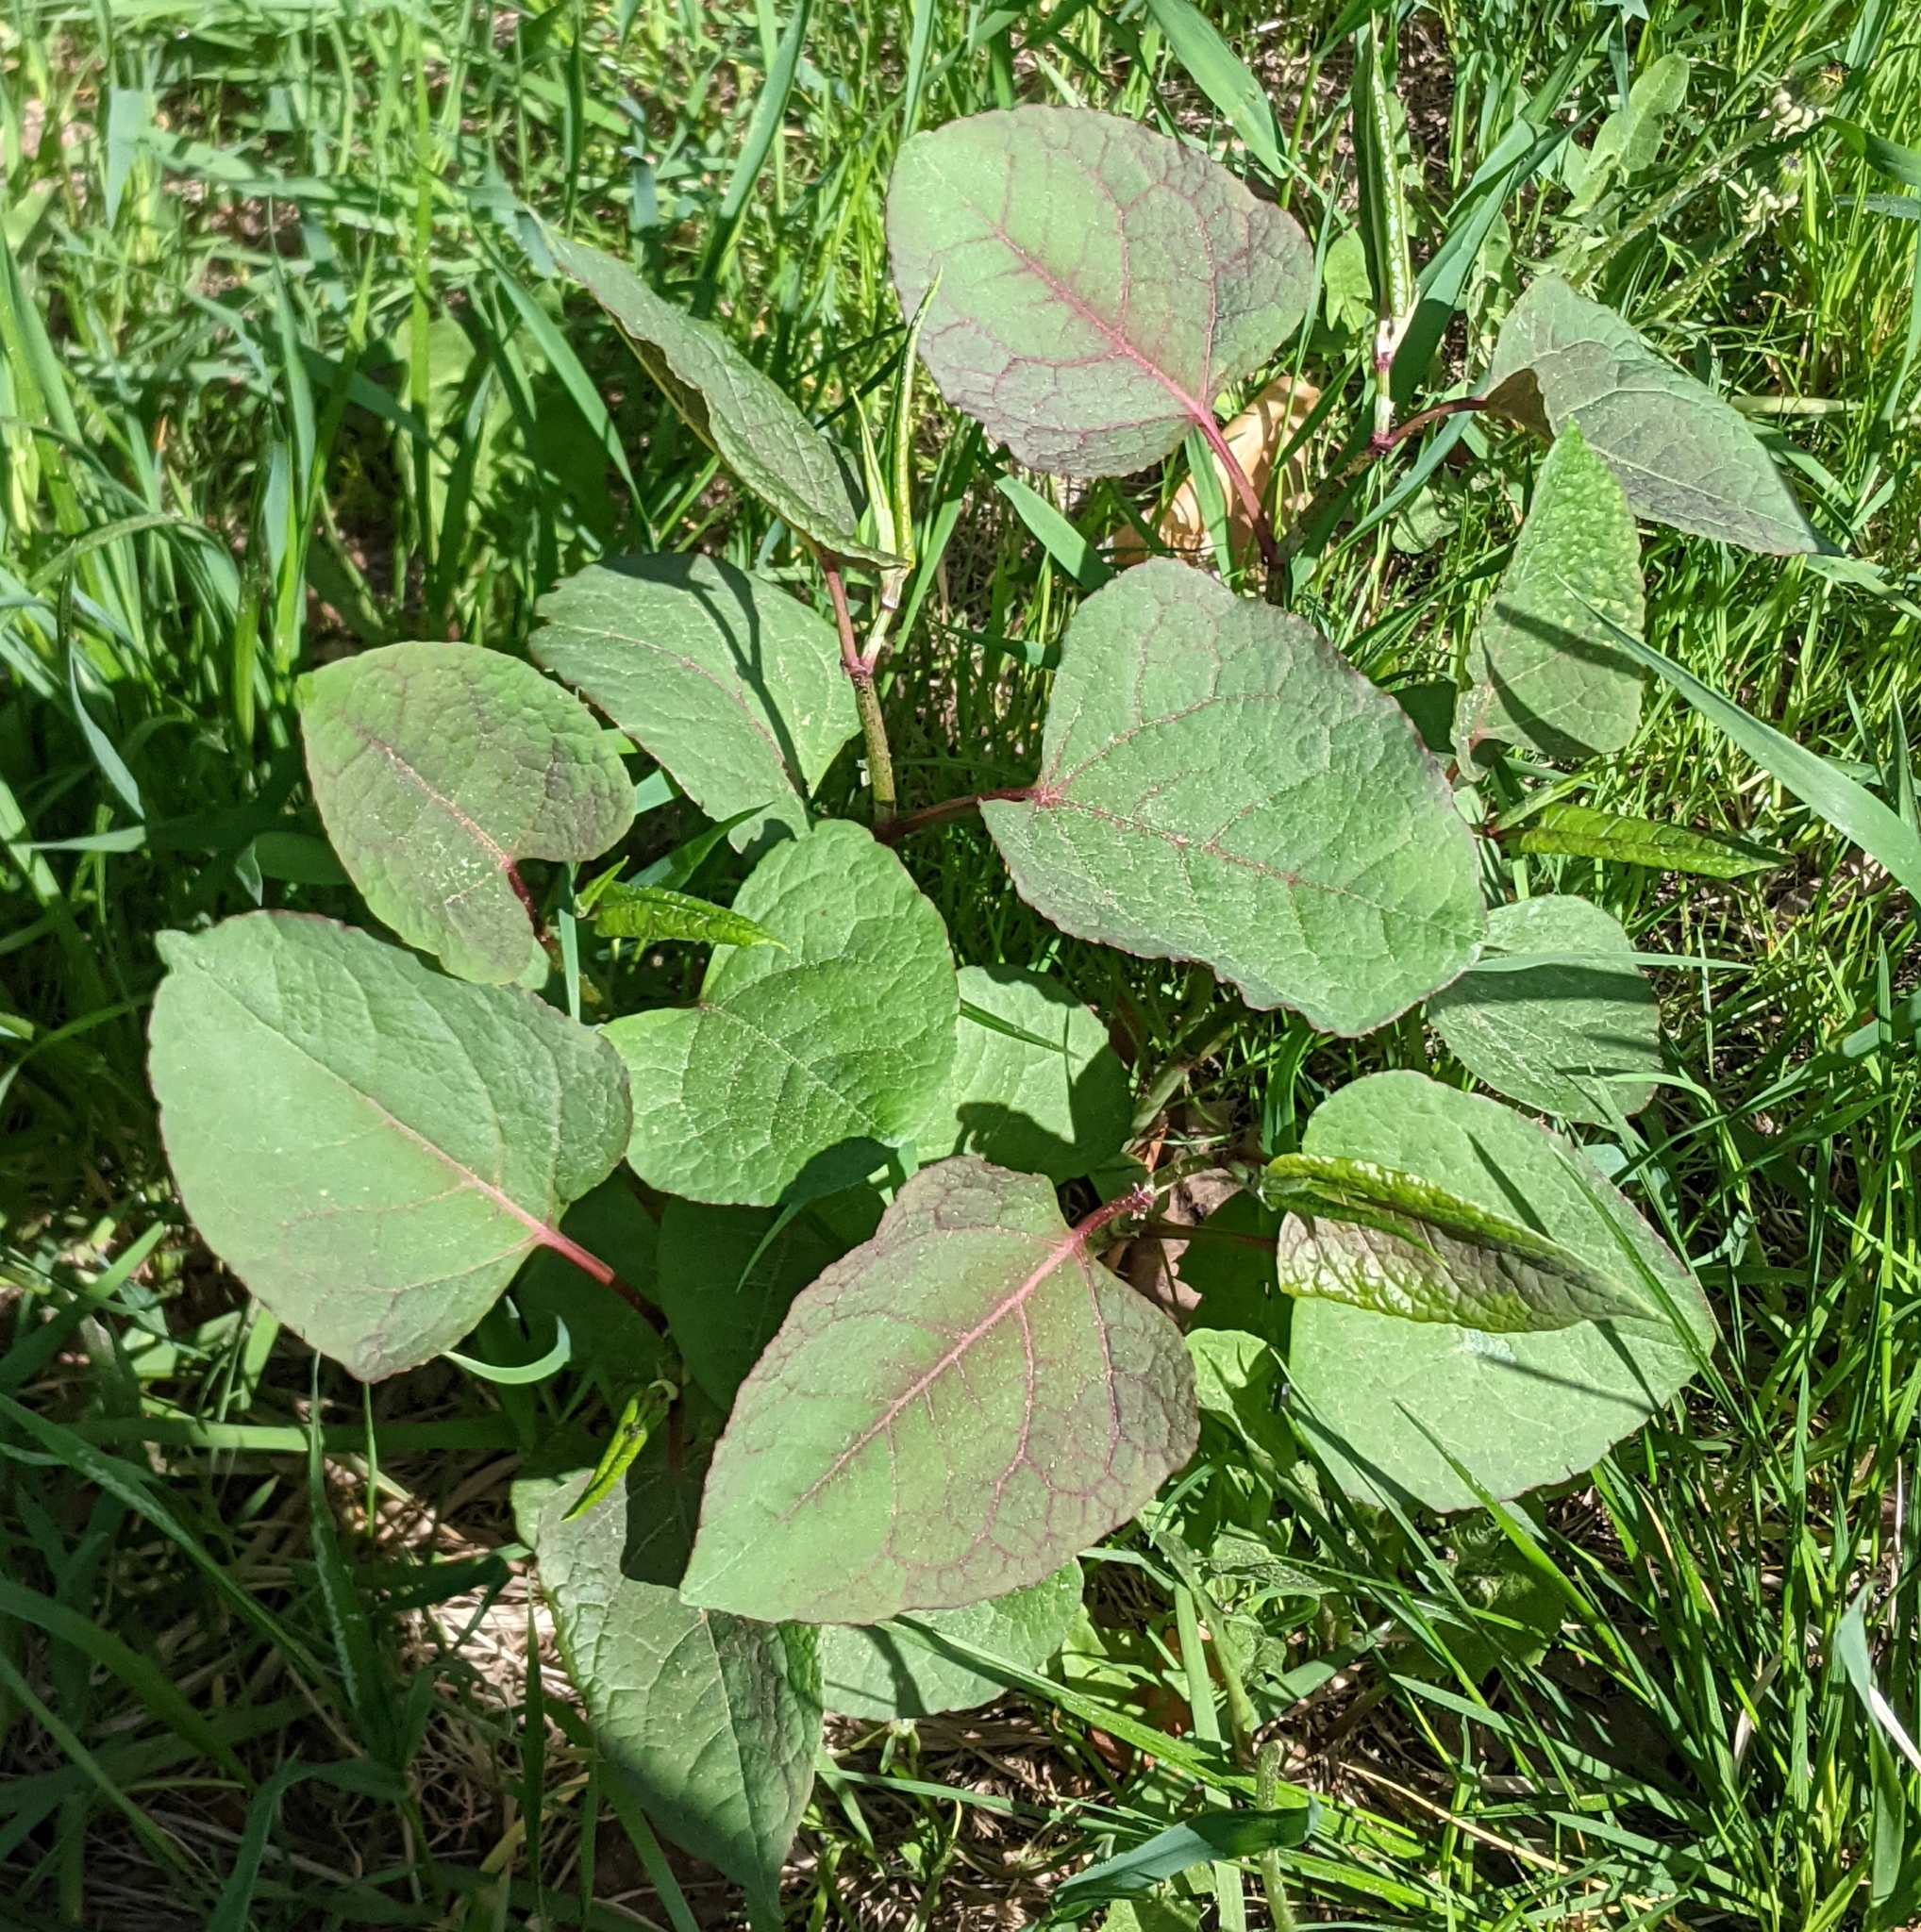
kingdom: Plantae
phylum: Tracheophyta
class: Magnoliopsida
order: Caryophyllales
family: Polygonaceae
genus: Reynoutria
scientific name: Reynoutria bohemica
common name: Bohemian knotweed
